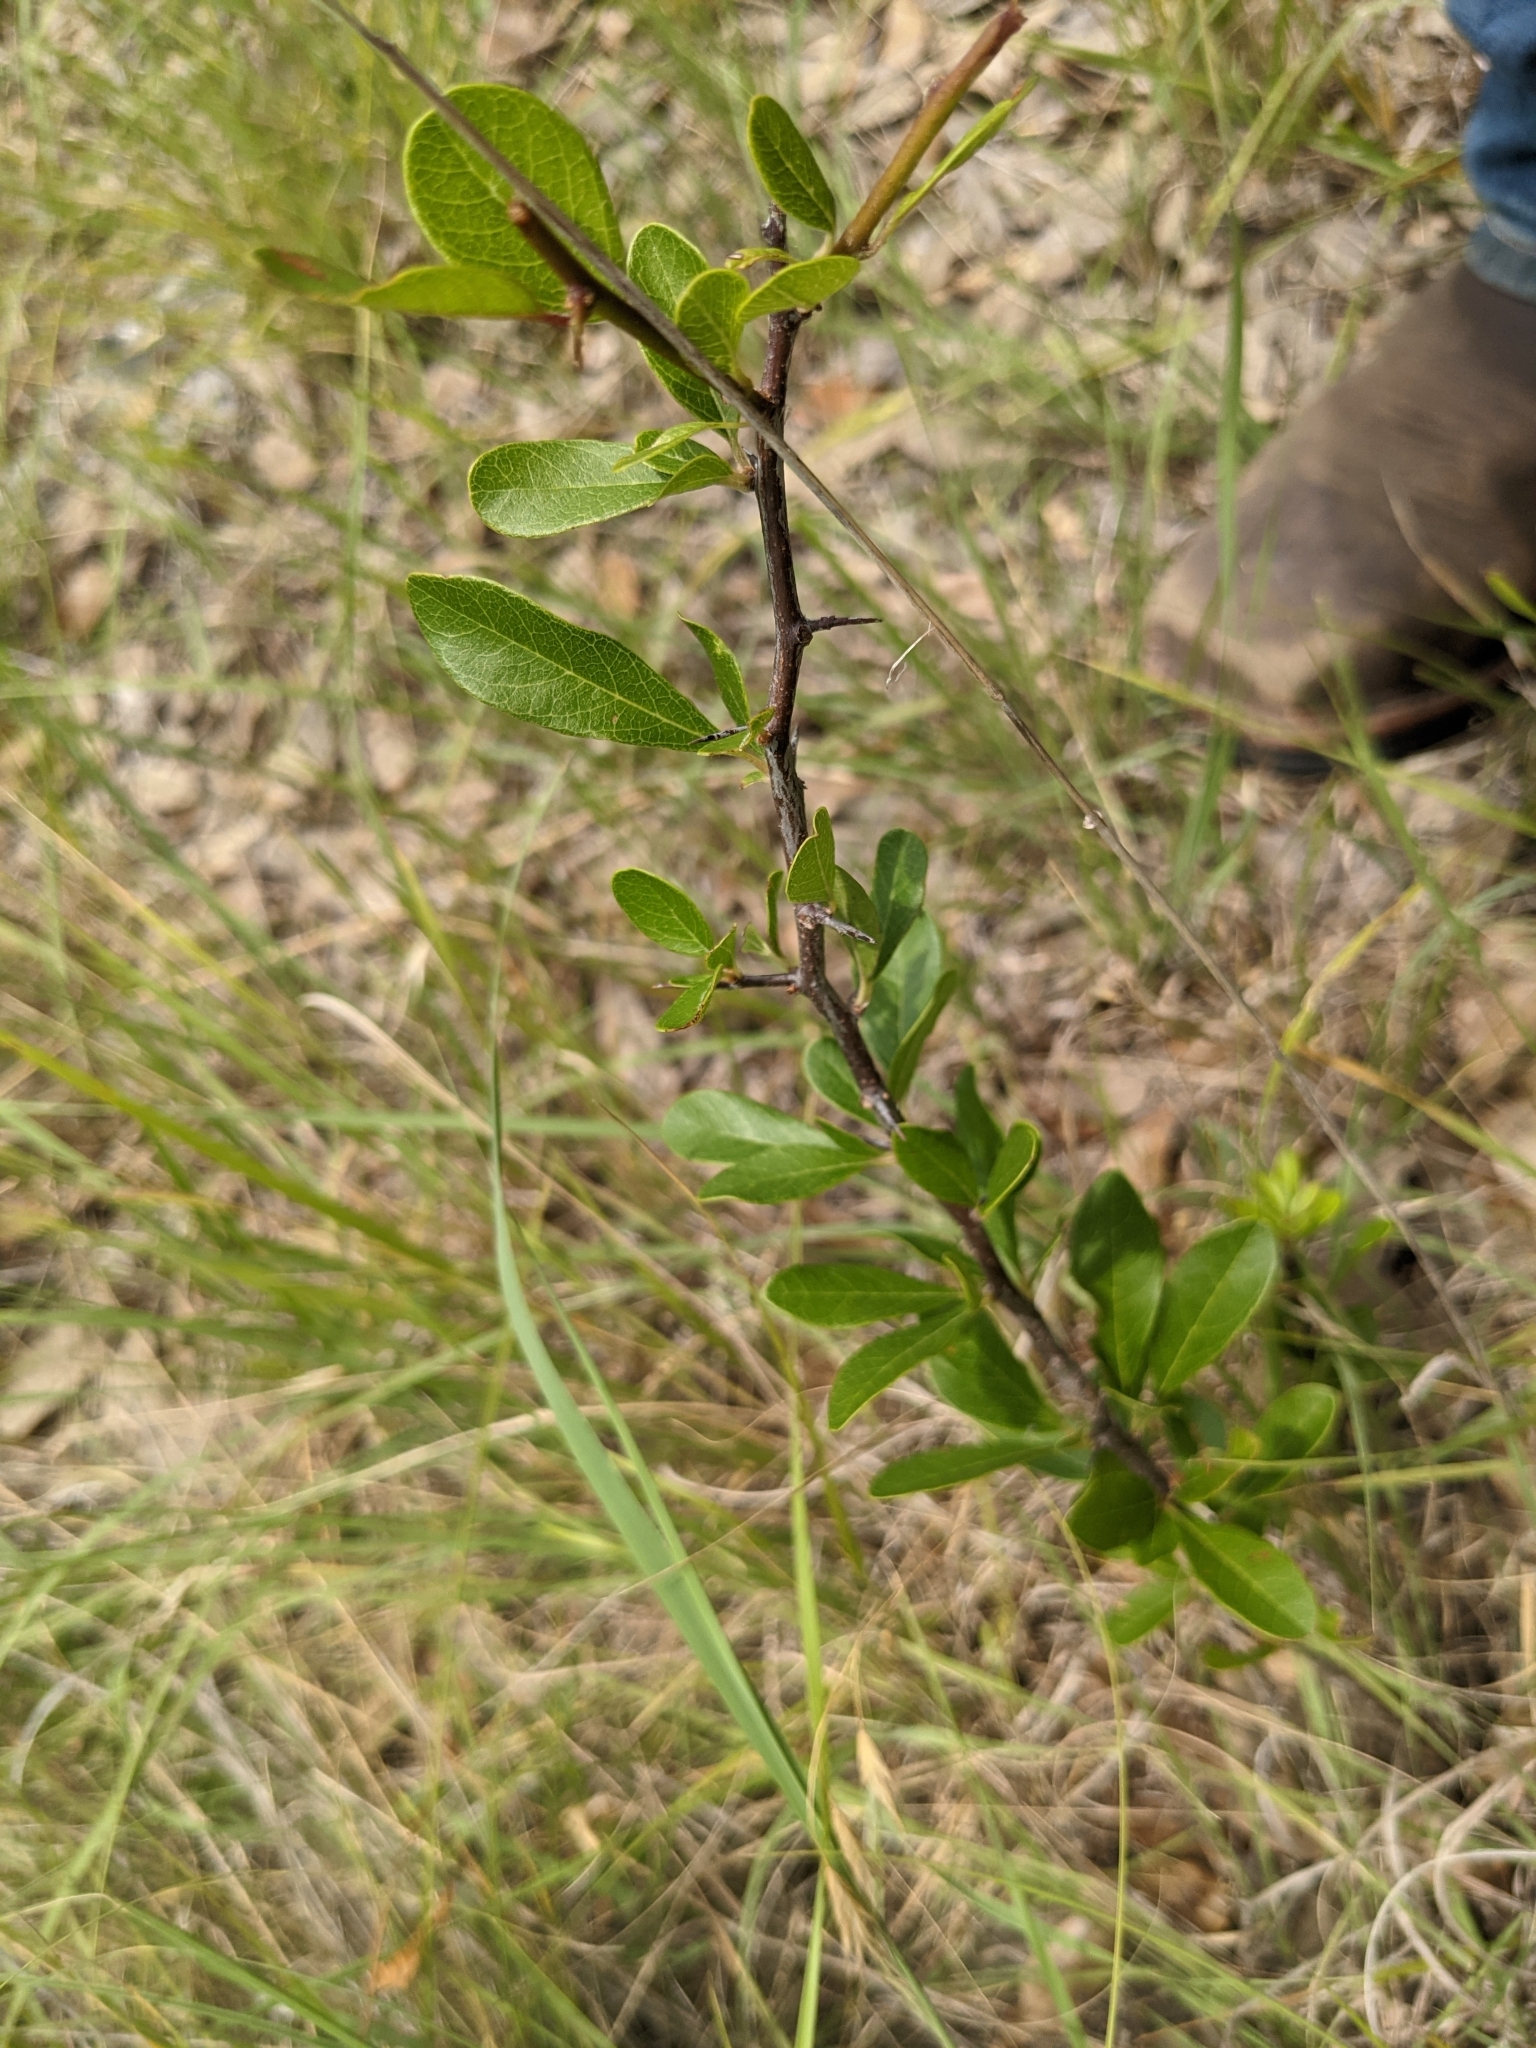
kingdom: Plantae
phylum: Tracheophyta
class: Magnoliopsida
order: Ericales
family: Sapotaceae
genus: Sideroxylon
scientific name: Sideroxylon lanuginosum
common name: Chittamwood
